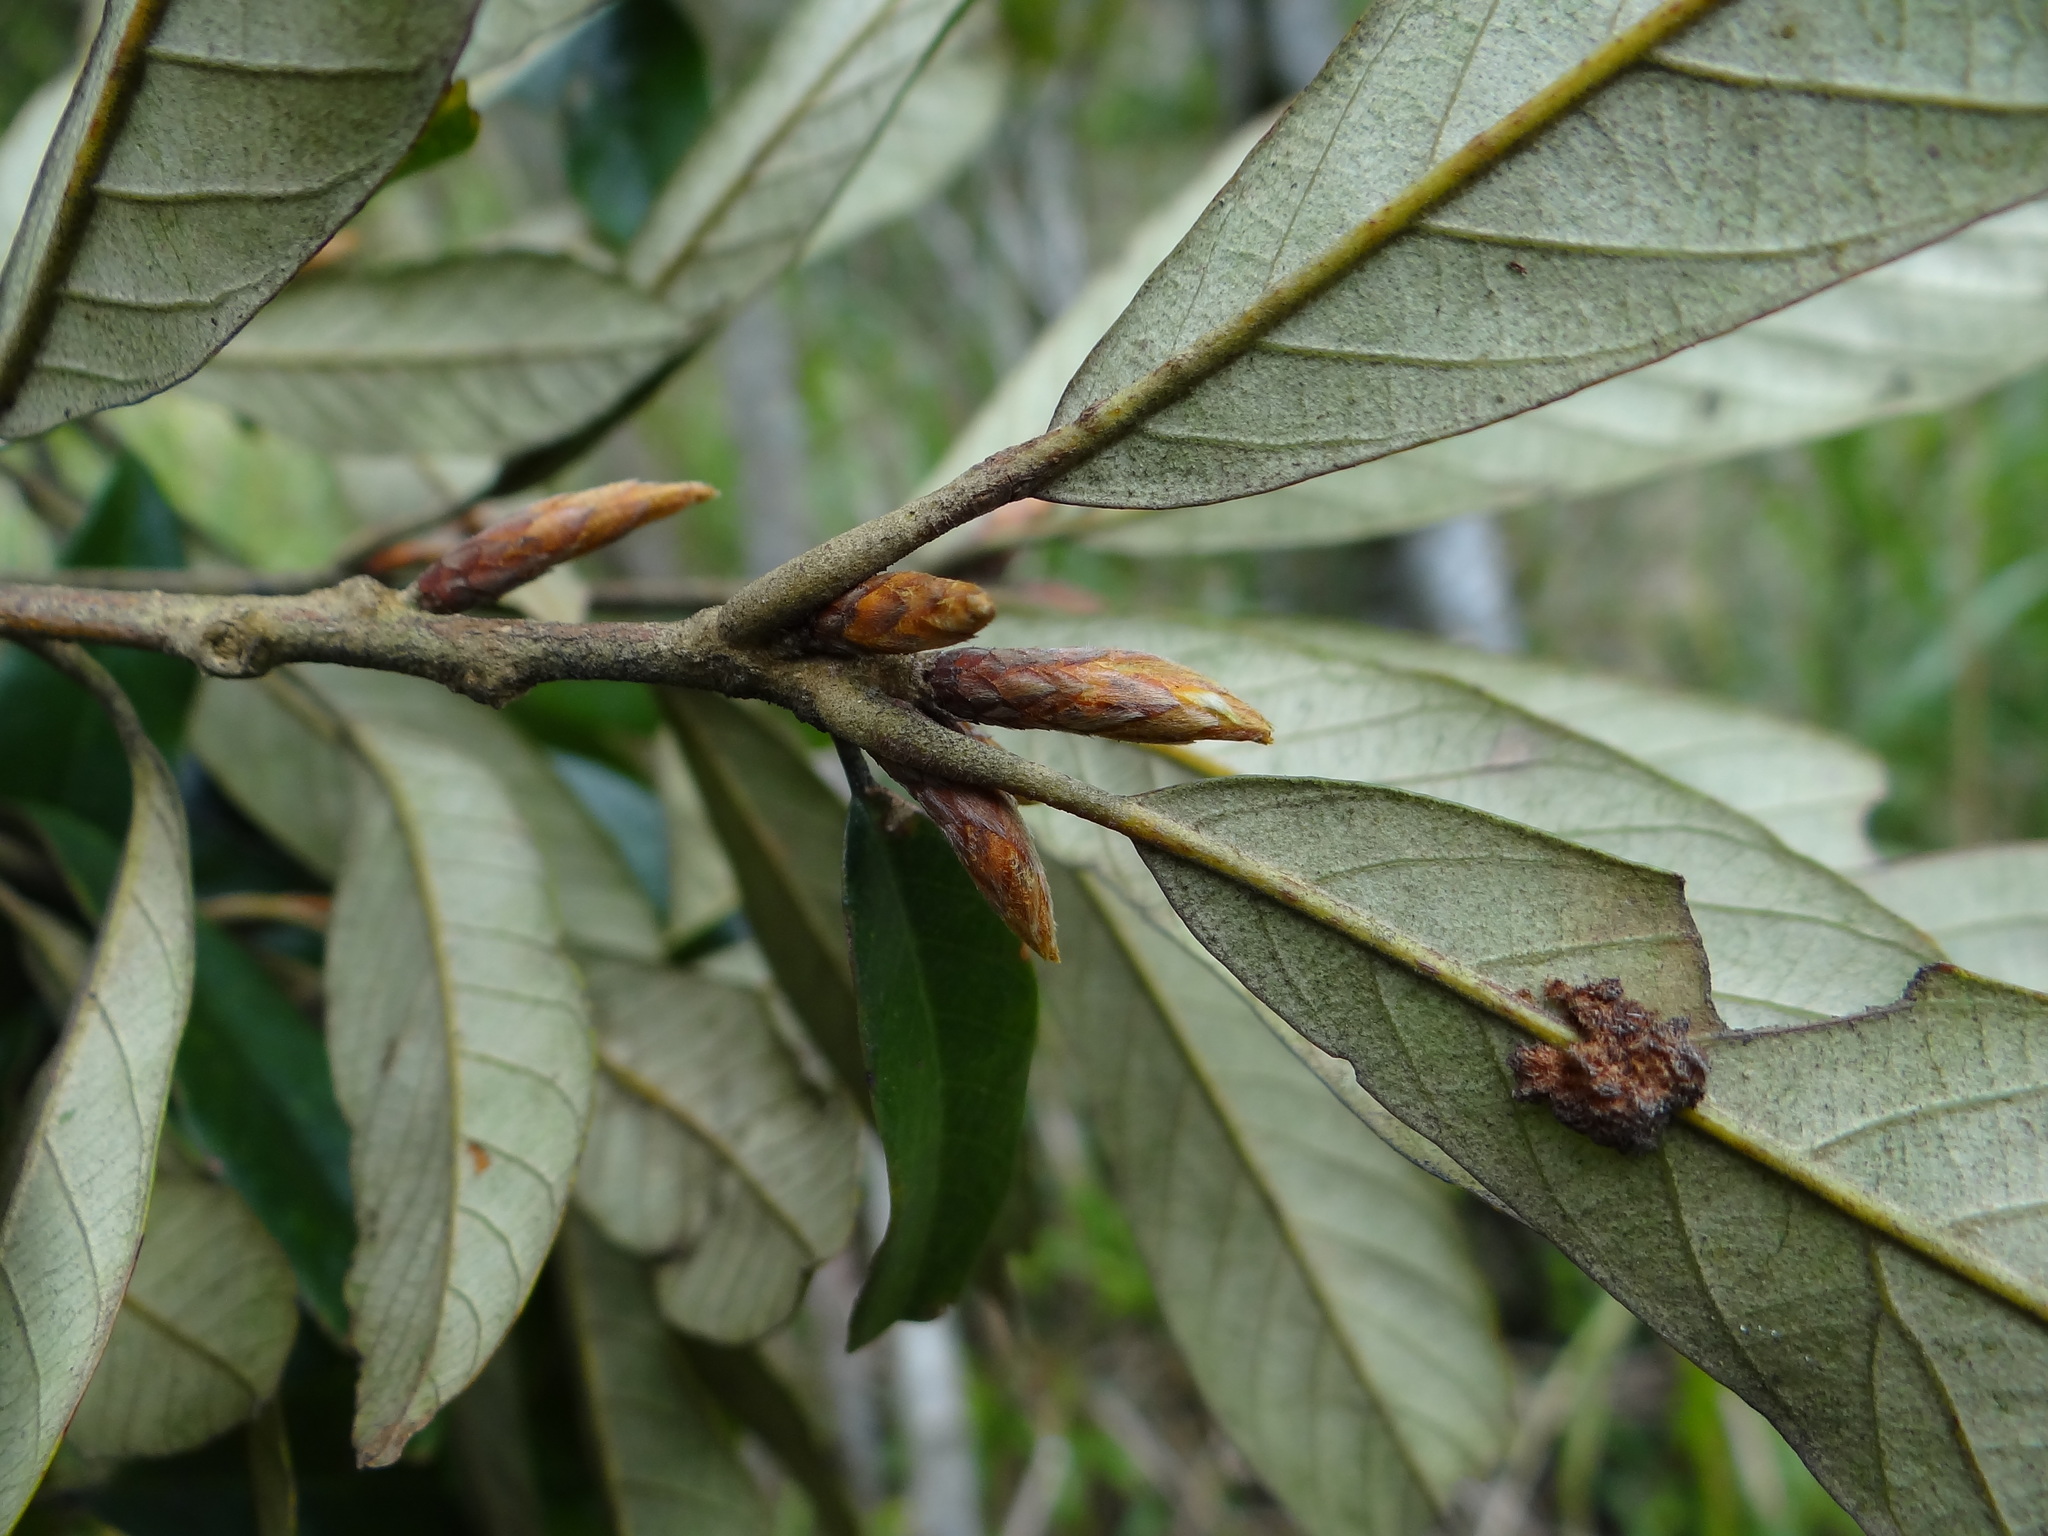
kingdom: Plantae
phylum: Tracheophyta
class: Magnoliopsida
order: Fagales
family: Fagaceae
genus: Quercus
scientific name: Quercus gilva
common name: Redbark oak
